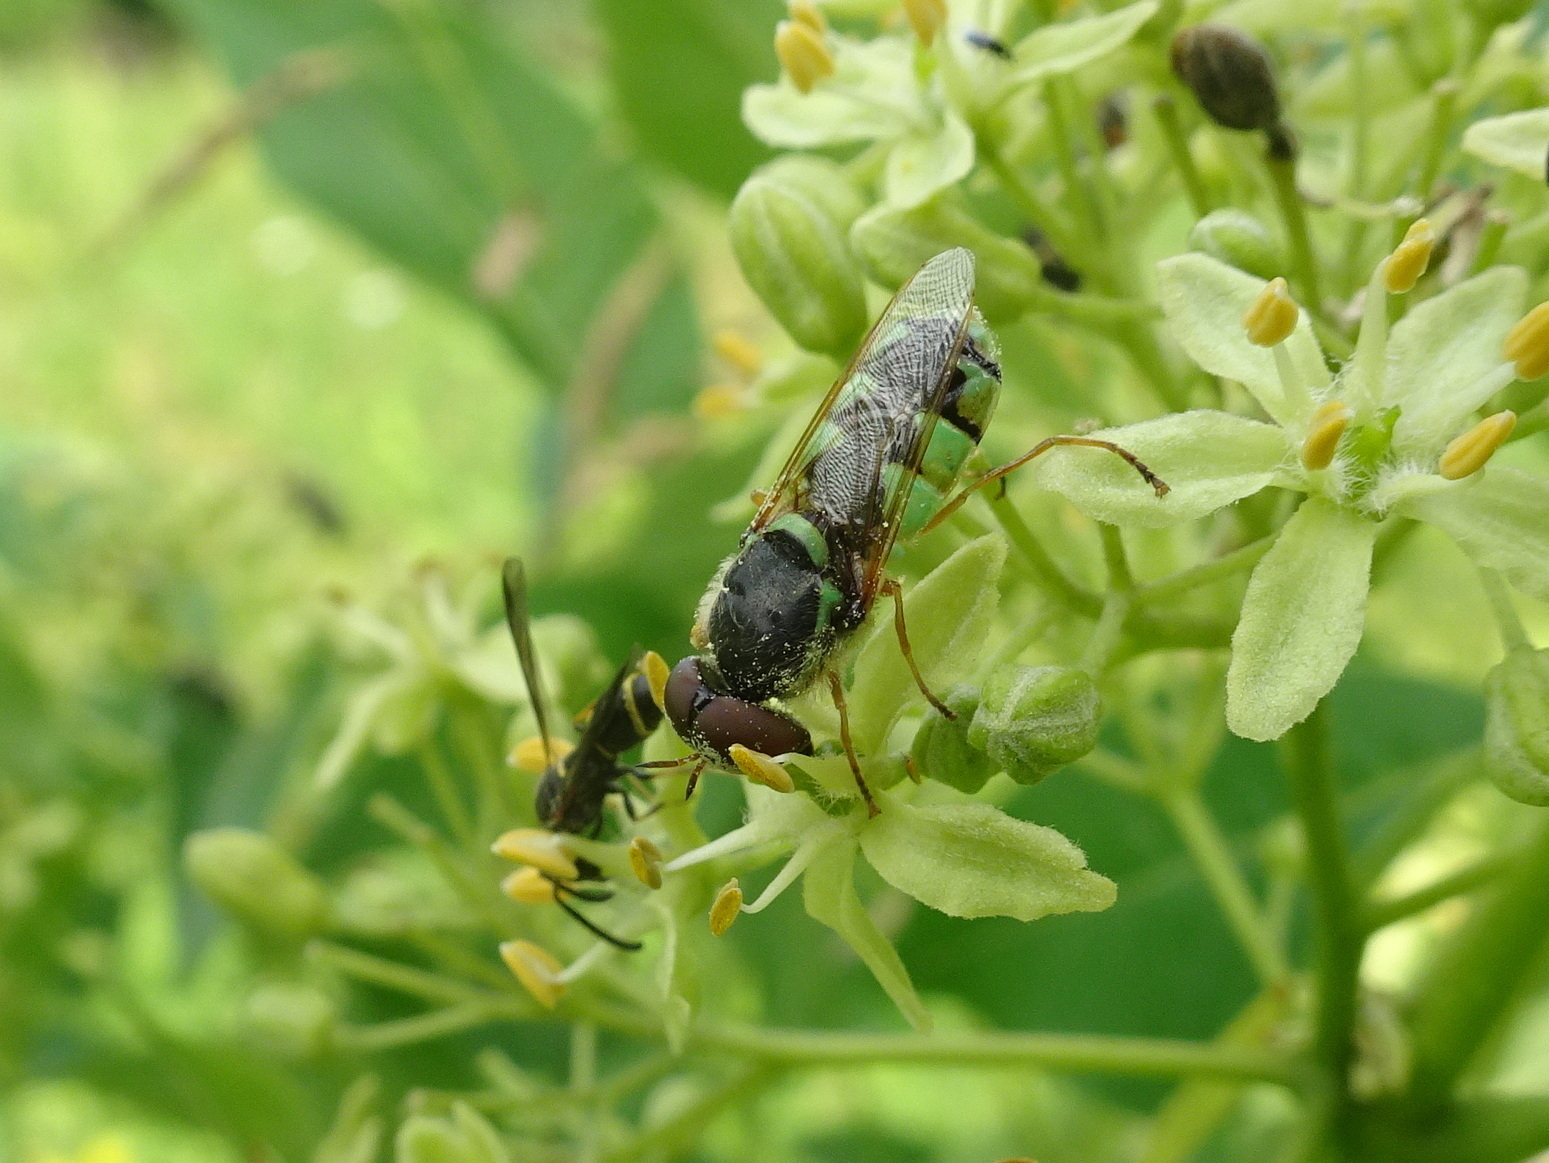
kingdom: Animalia
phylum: Arthropoda
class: Insecta
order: Diptera
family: Stratiomyidae
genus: Odontomyia
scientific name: Odontomyia cincta
